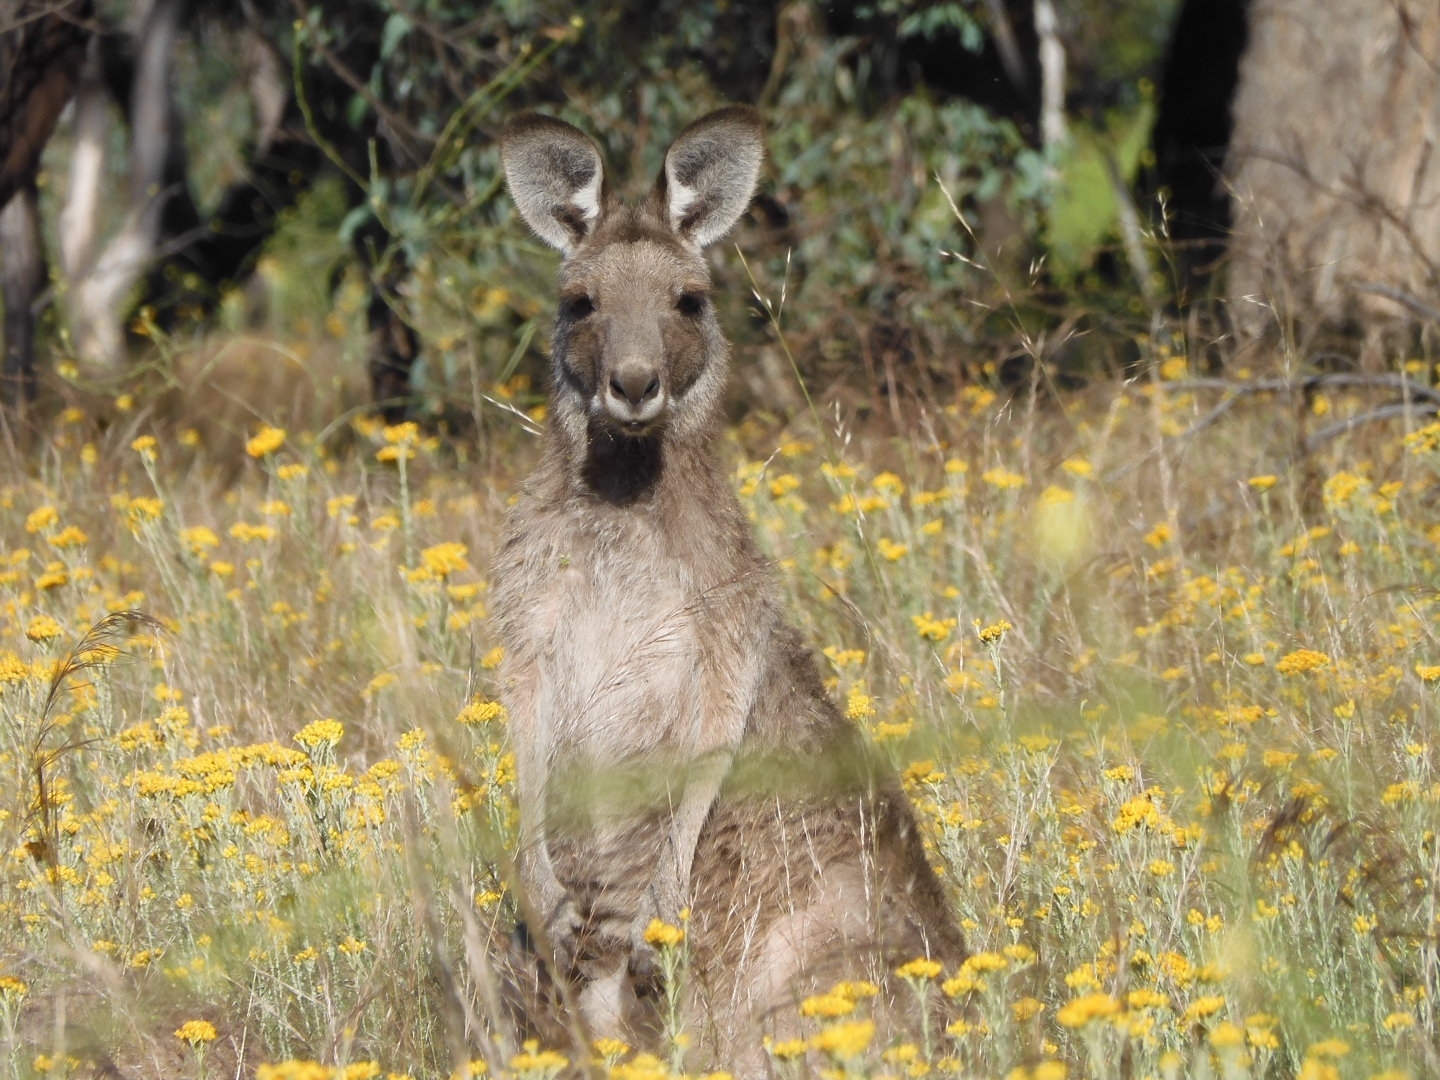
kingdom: Animalia
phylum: Chordata
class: Mammalia
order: Diprotodontia
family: Macropodidae
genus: Macropus
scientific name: Macropus giganteus
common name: Eastern grey kangaroo
